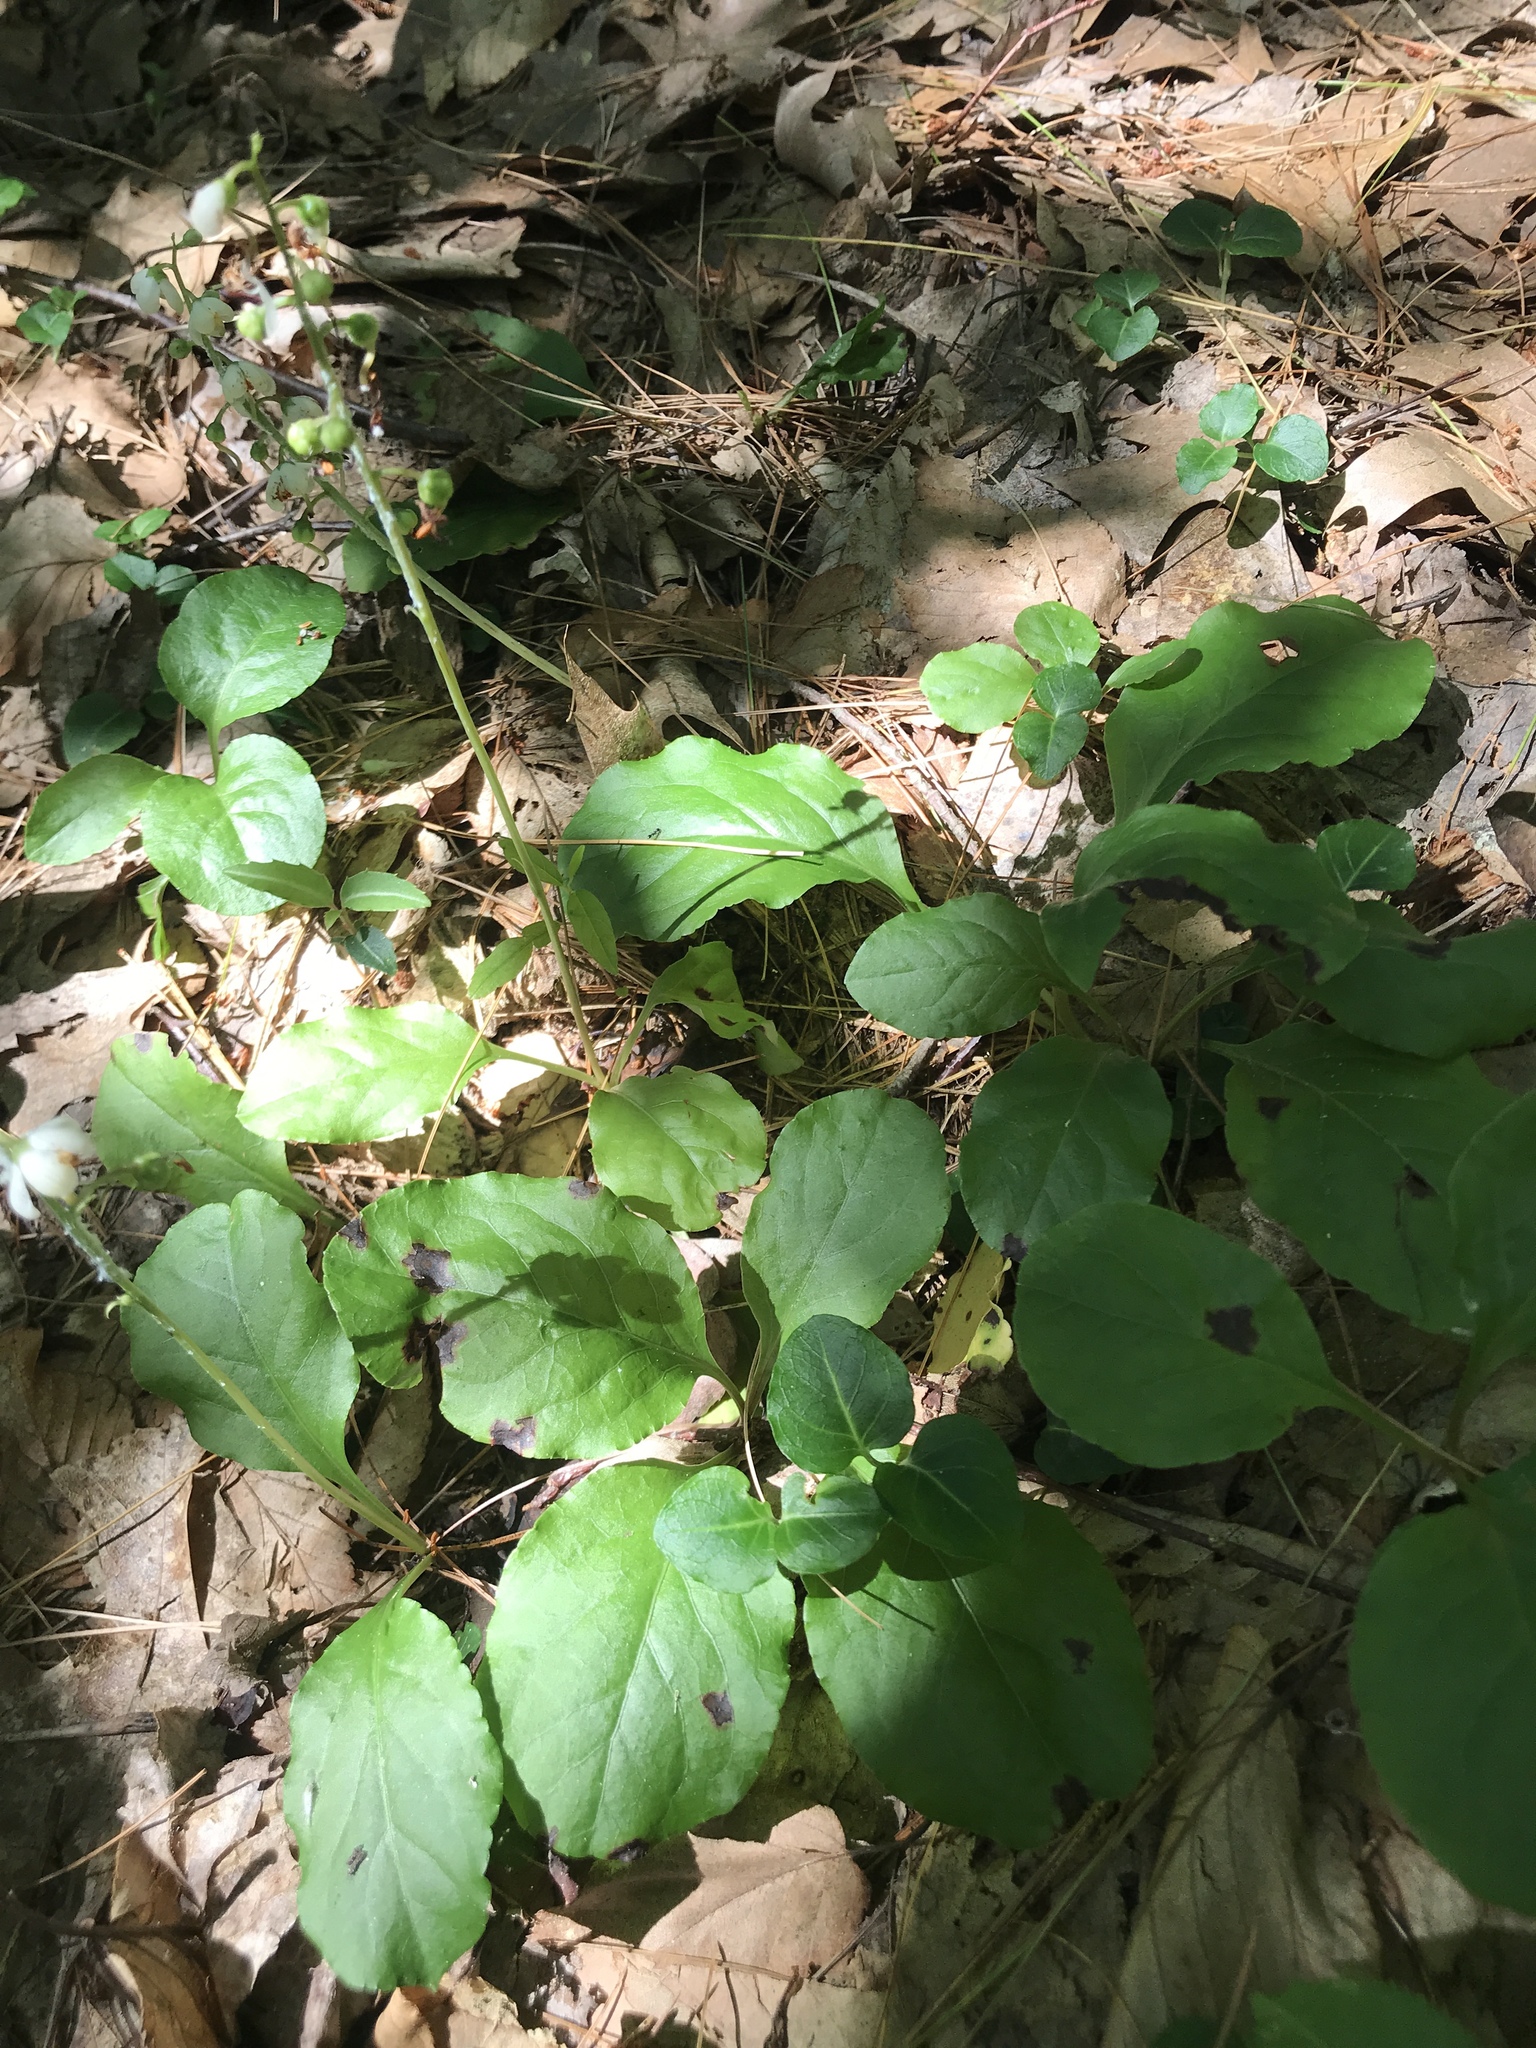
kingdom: Plantae
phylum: Tracheophyta
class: Magnoliopsida
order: Ericales
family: Ericaceae
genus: Pyrola
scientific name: Pyrola elliptica
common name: Shinleaf
